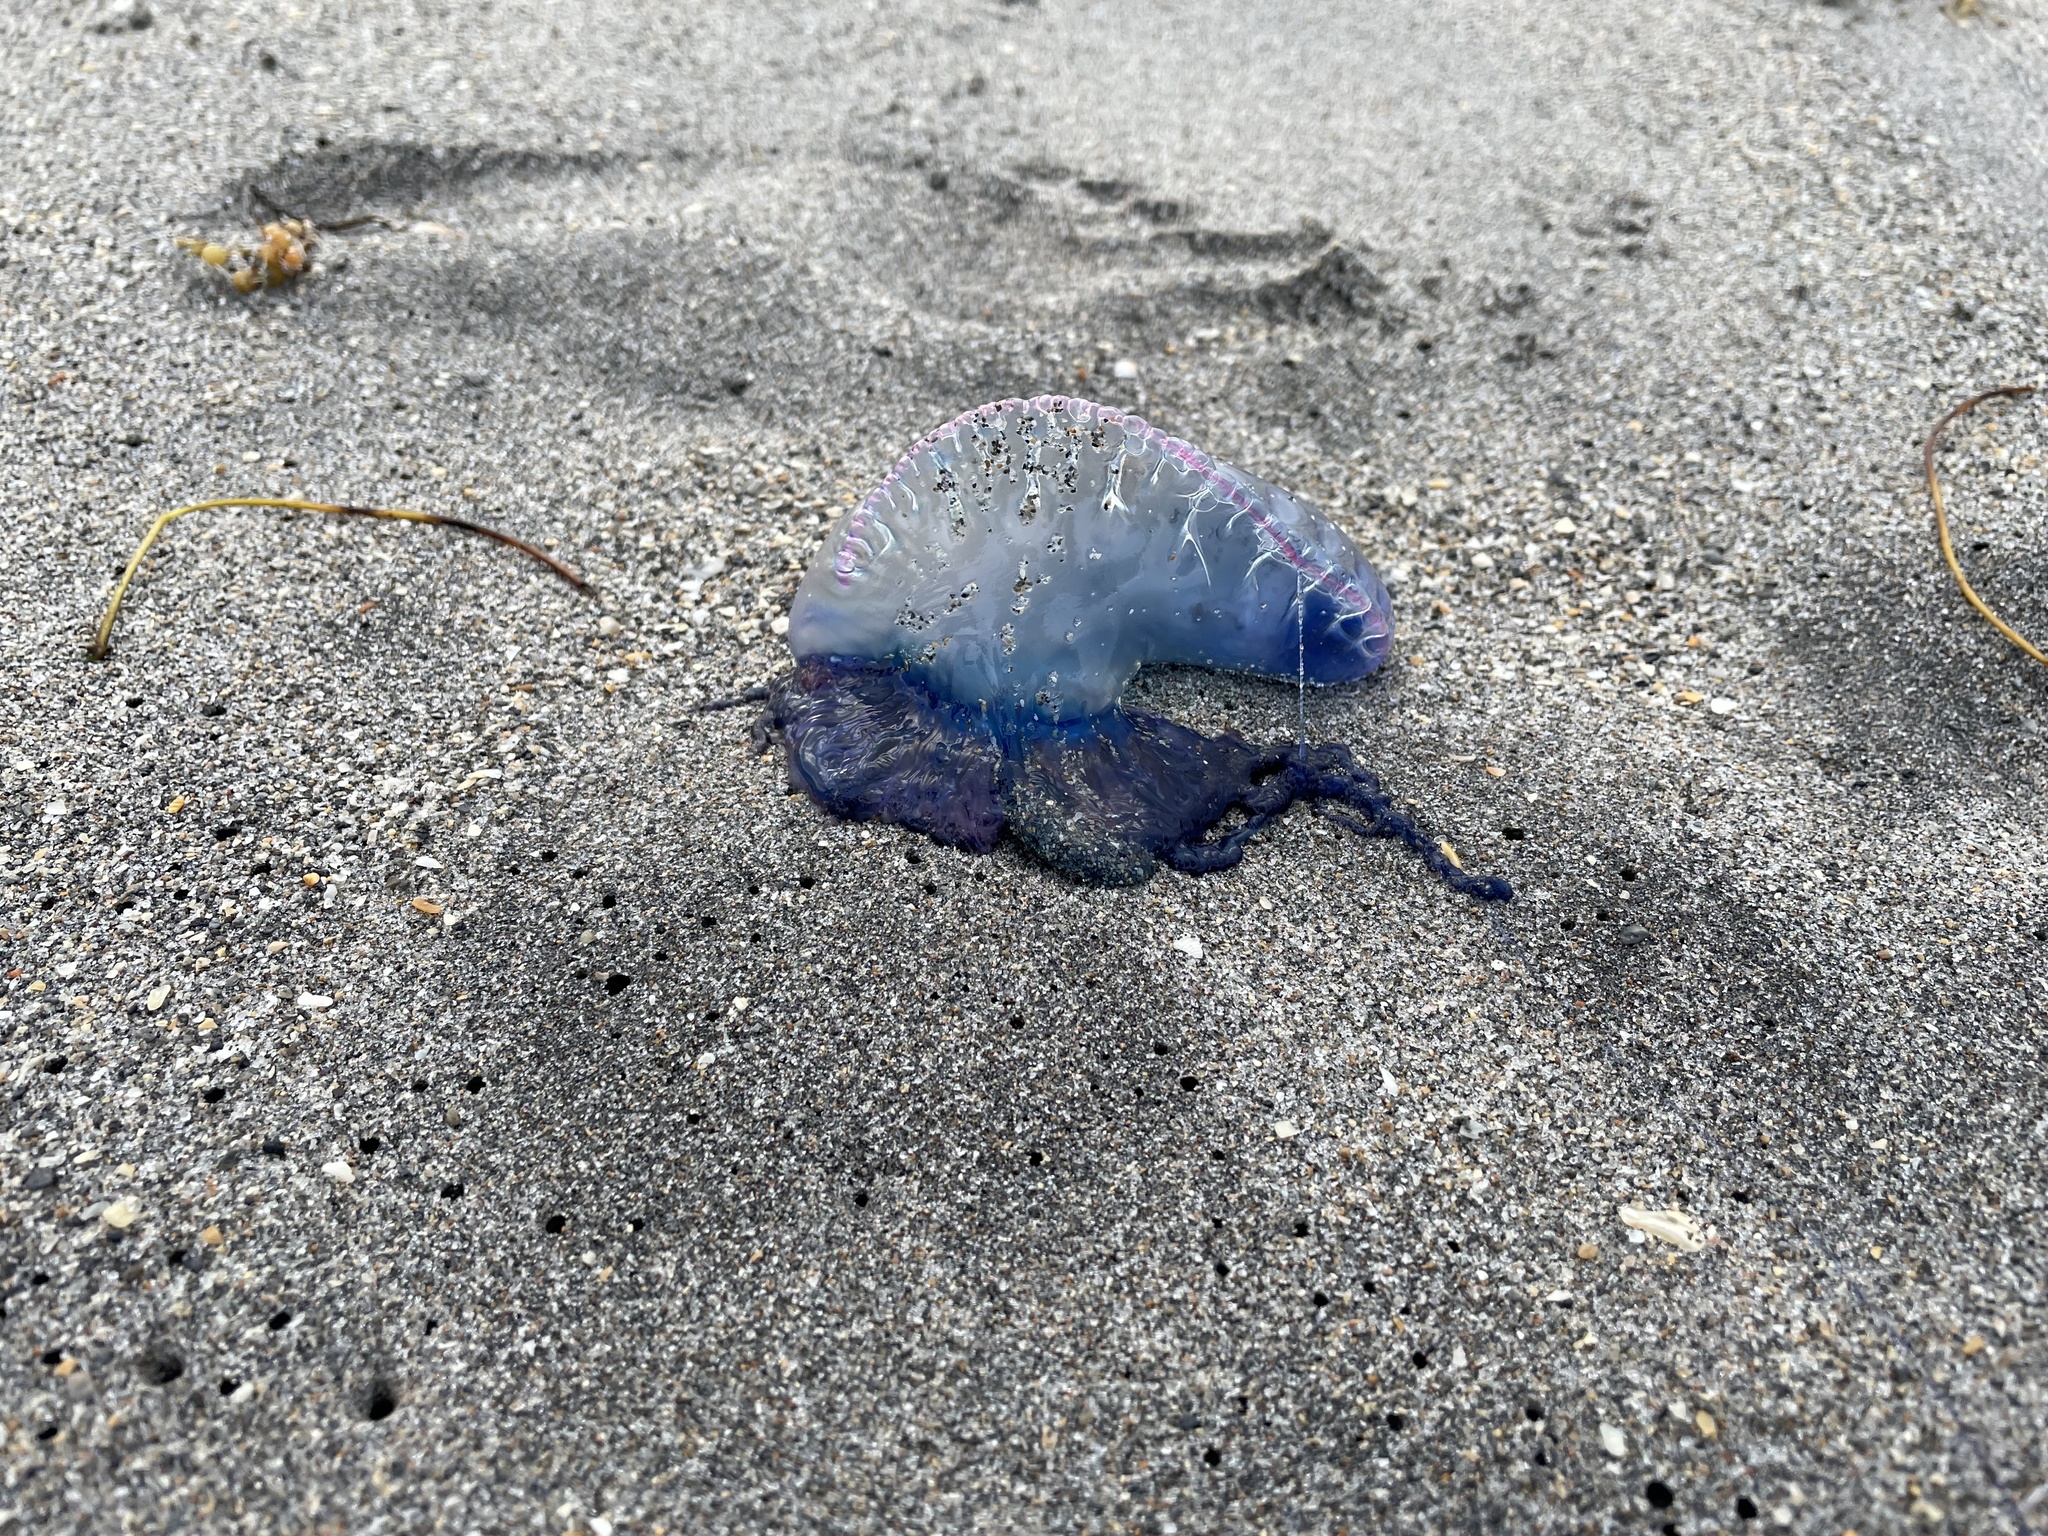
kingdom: Animalia
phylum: Cnidaria
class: Hydrozoa
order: Siphonophorae
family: Physaliidae
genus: Physalia
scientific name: Physalia physalis
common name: Portuguese man-of-war
